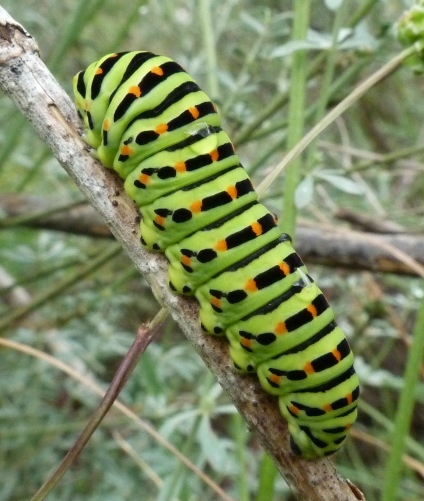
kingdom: Animalia
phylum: Arthropoda
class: Insecta
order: Lepidoptera
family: Papilionidae
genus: Papilio
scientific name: Papilio machaon
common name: Swallowtail
